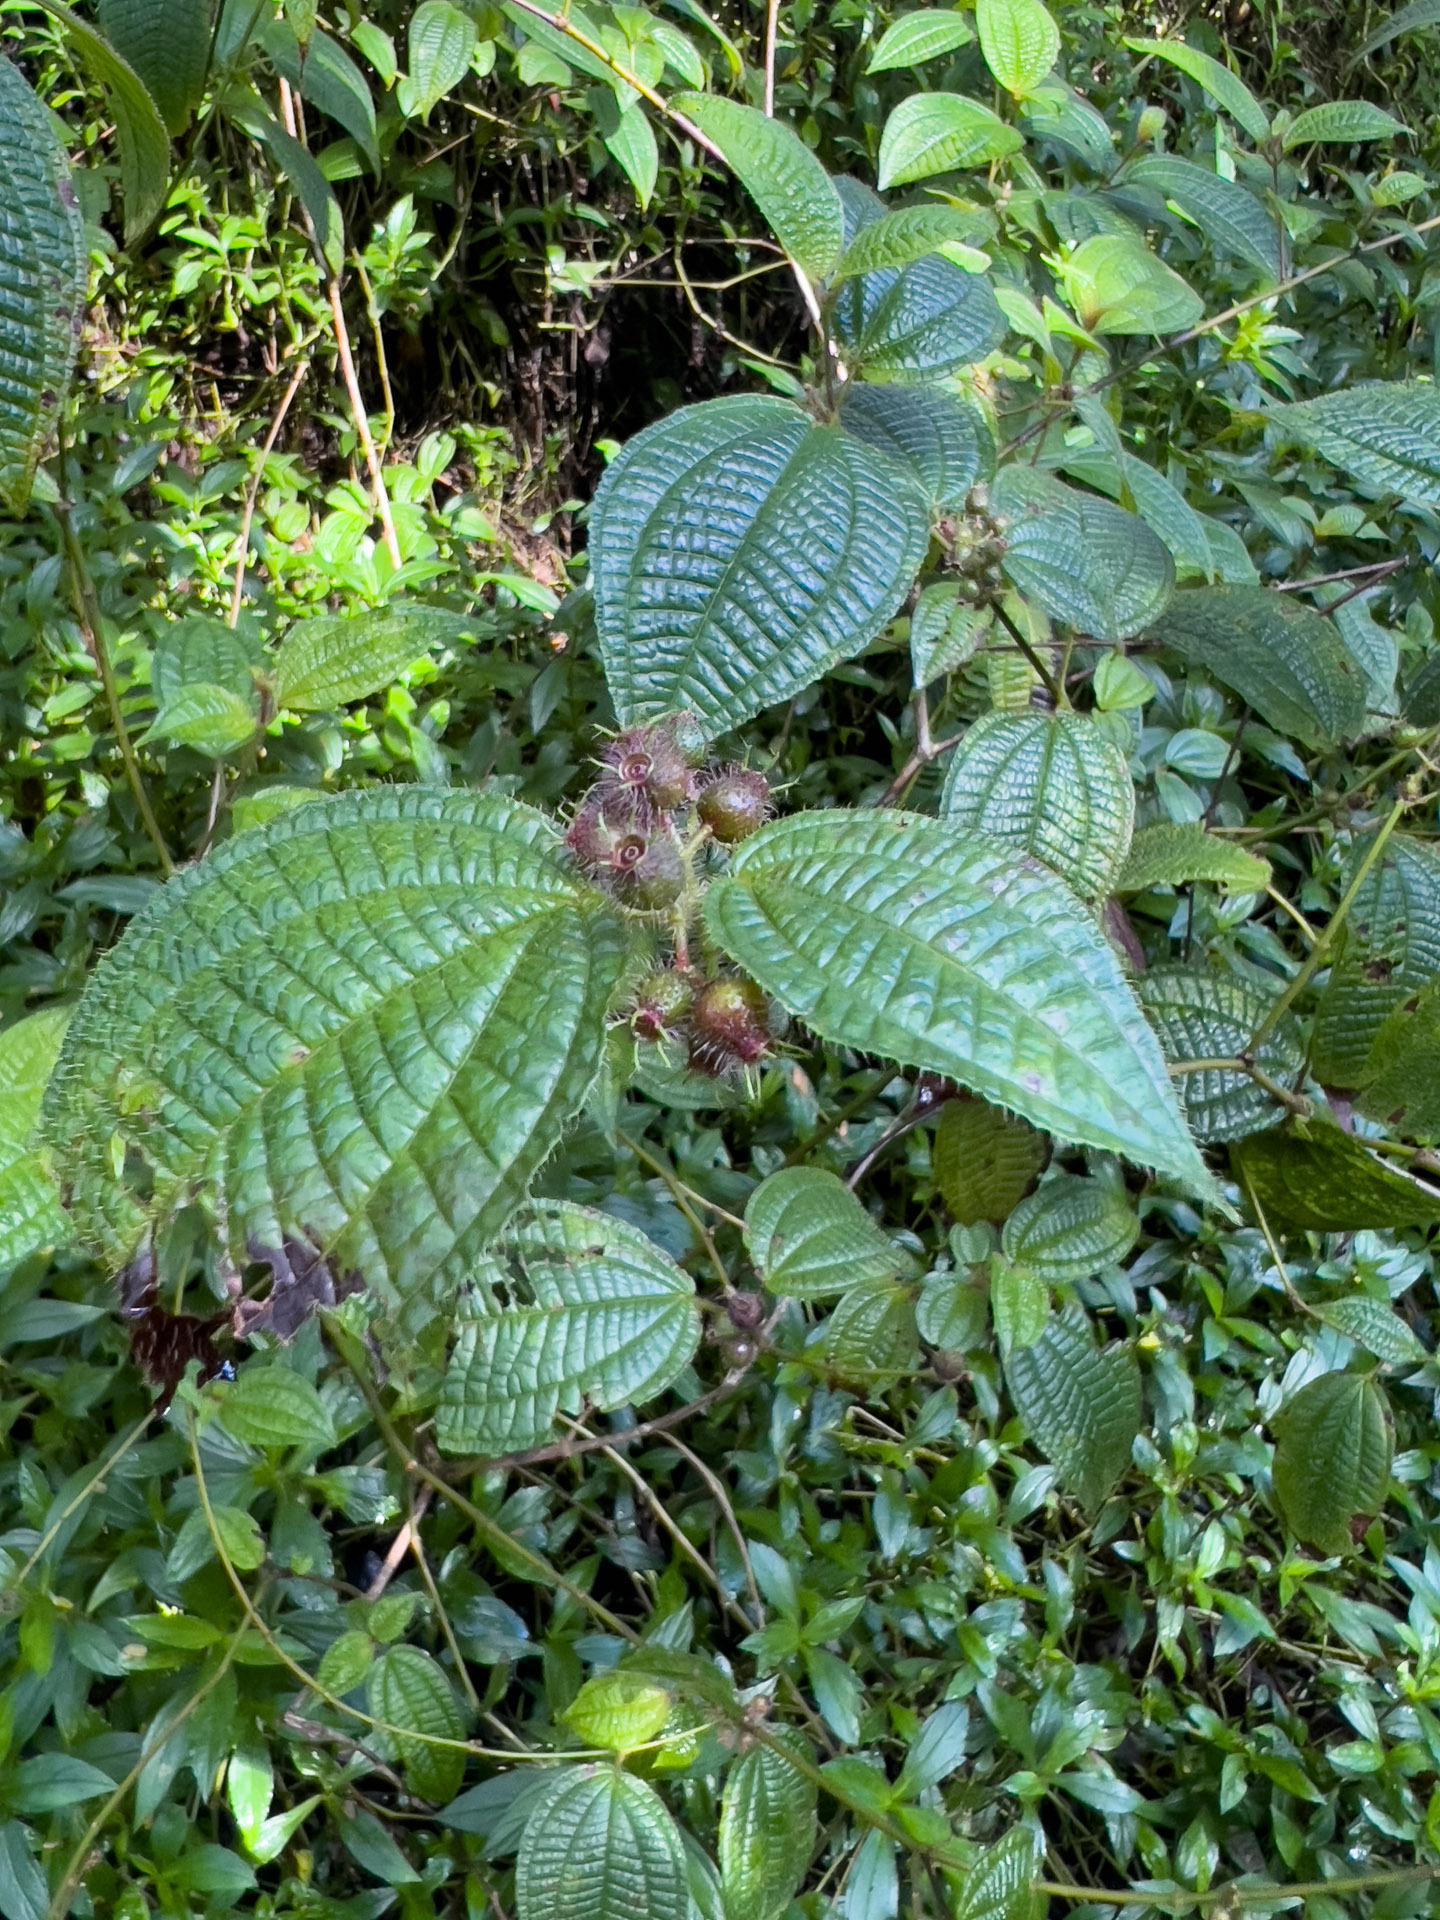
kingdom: Plantae
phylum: Tracheophyta
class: Magnoliopsida
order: Myrtales
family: Melastomataceae
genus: Miconia
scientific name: Miconia crenata
